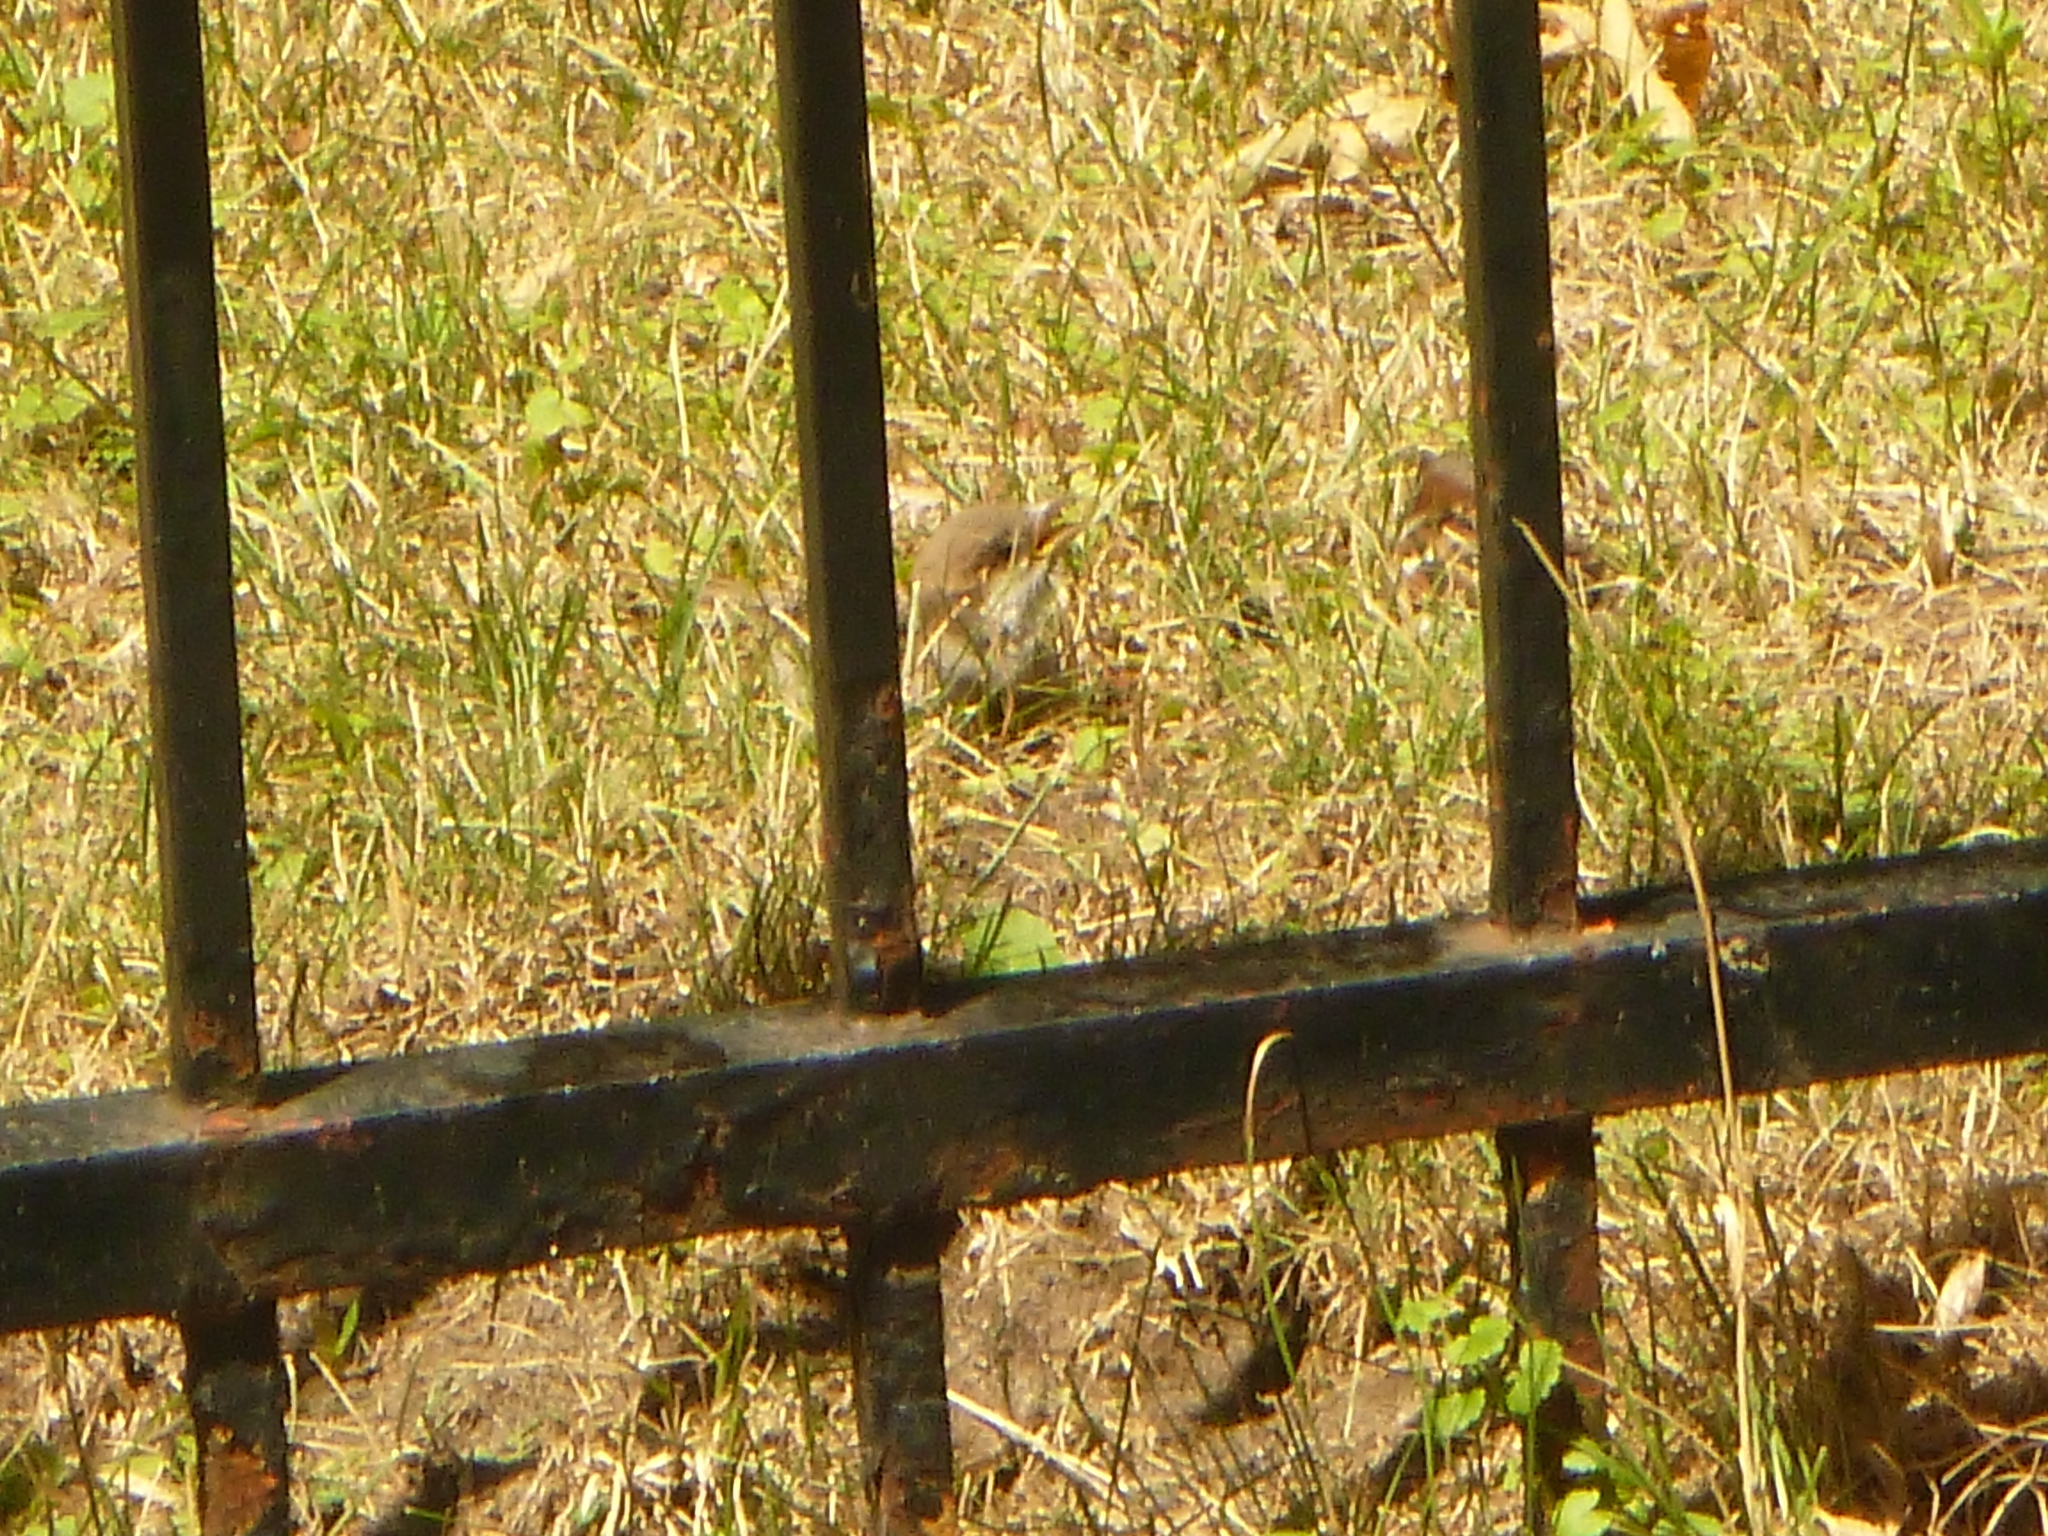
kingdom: Animalia
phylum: Chordata
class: Aves
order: Passeriformes
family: Passeridae
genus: Passer
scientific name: Passer domesticus
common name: House sparrow
